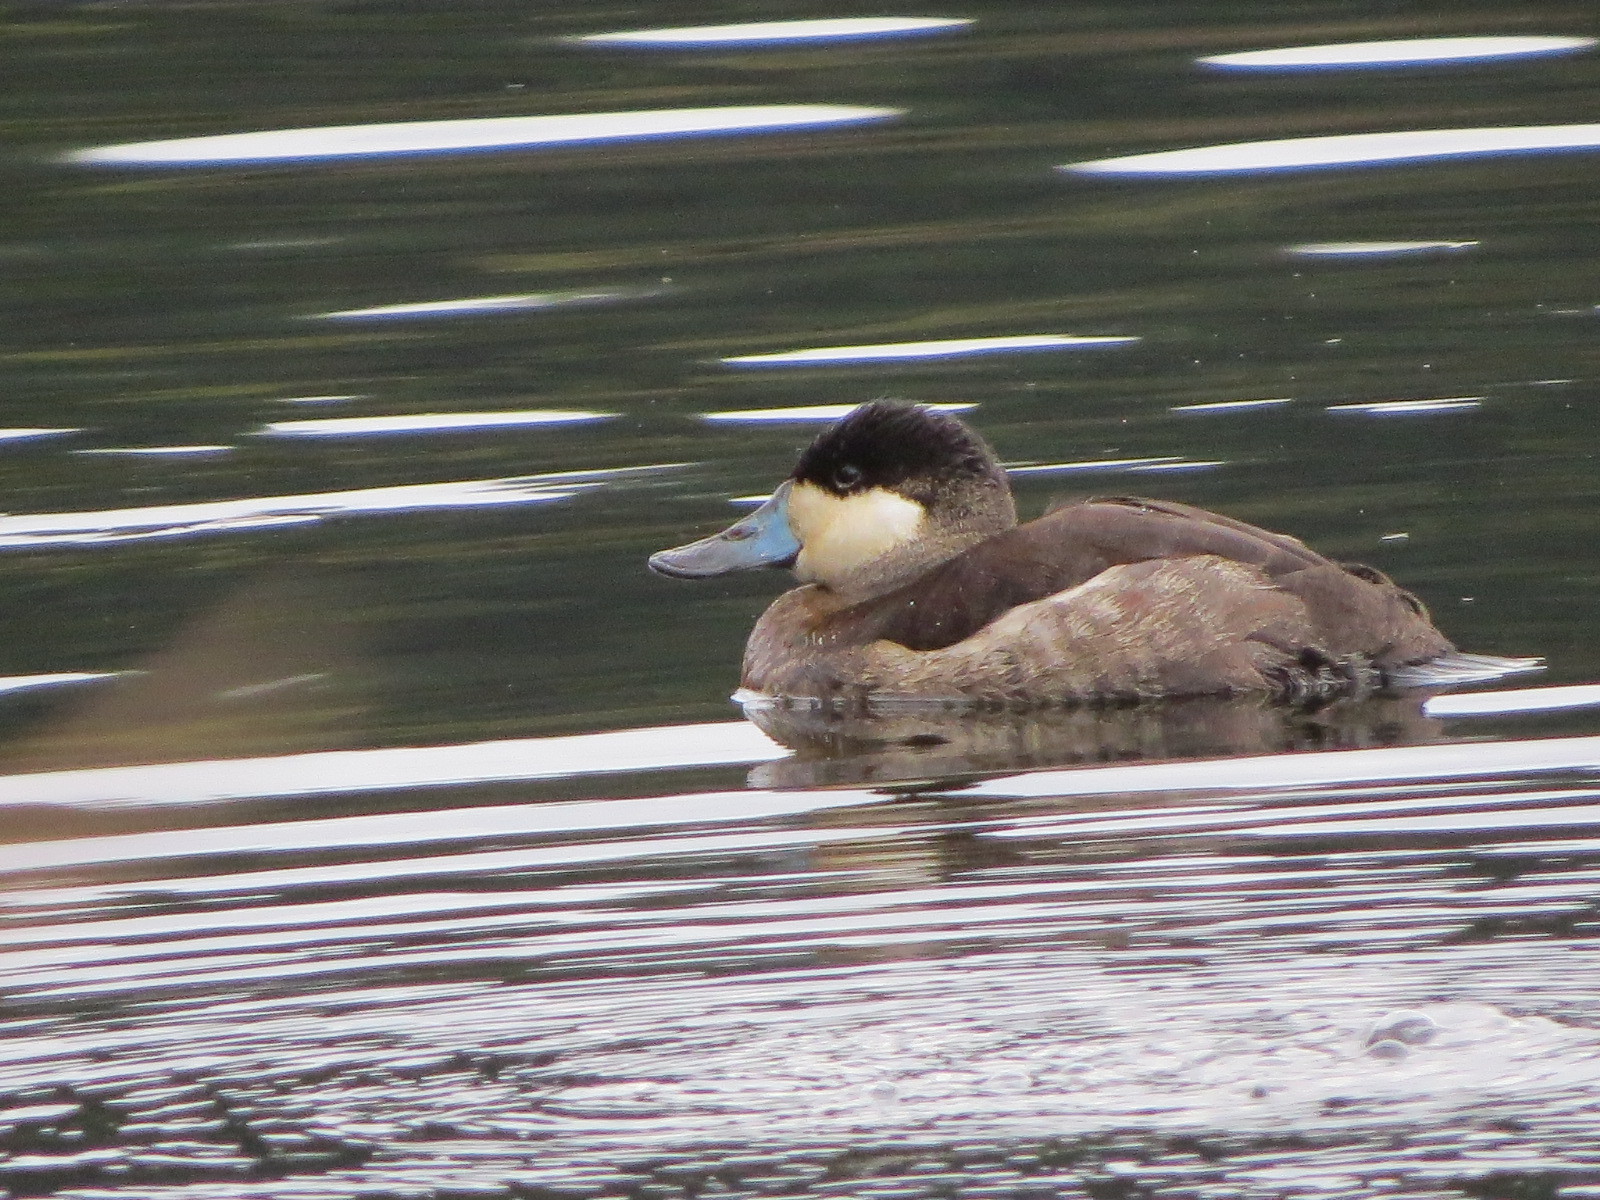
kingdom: Animalia
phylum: Chordata
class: Aves
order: Anseriformes
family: Anatidae
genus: Oxyura
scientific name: Oxyura jamaicensis
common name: Ruddy duck
